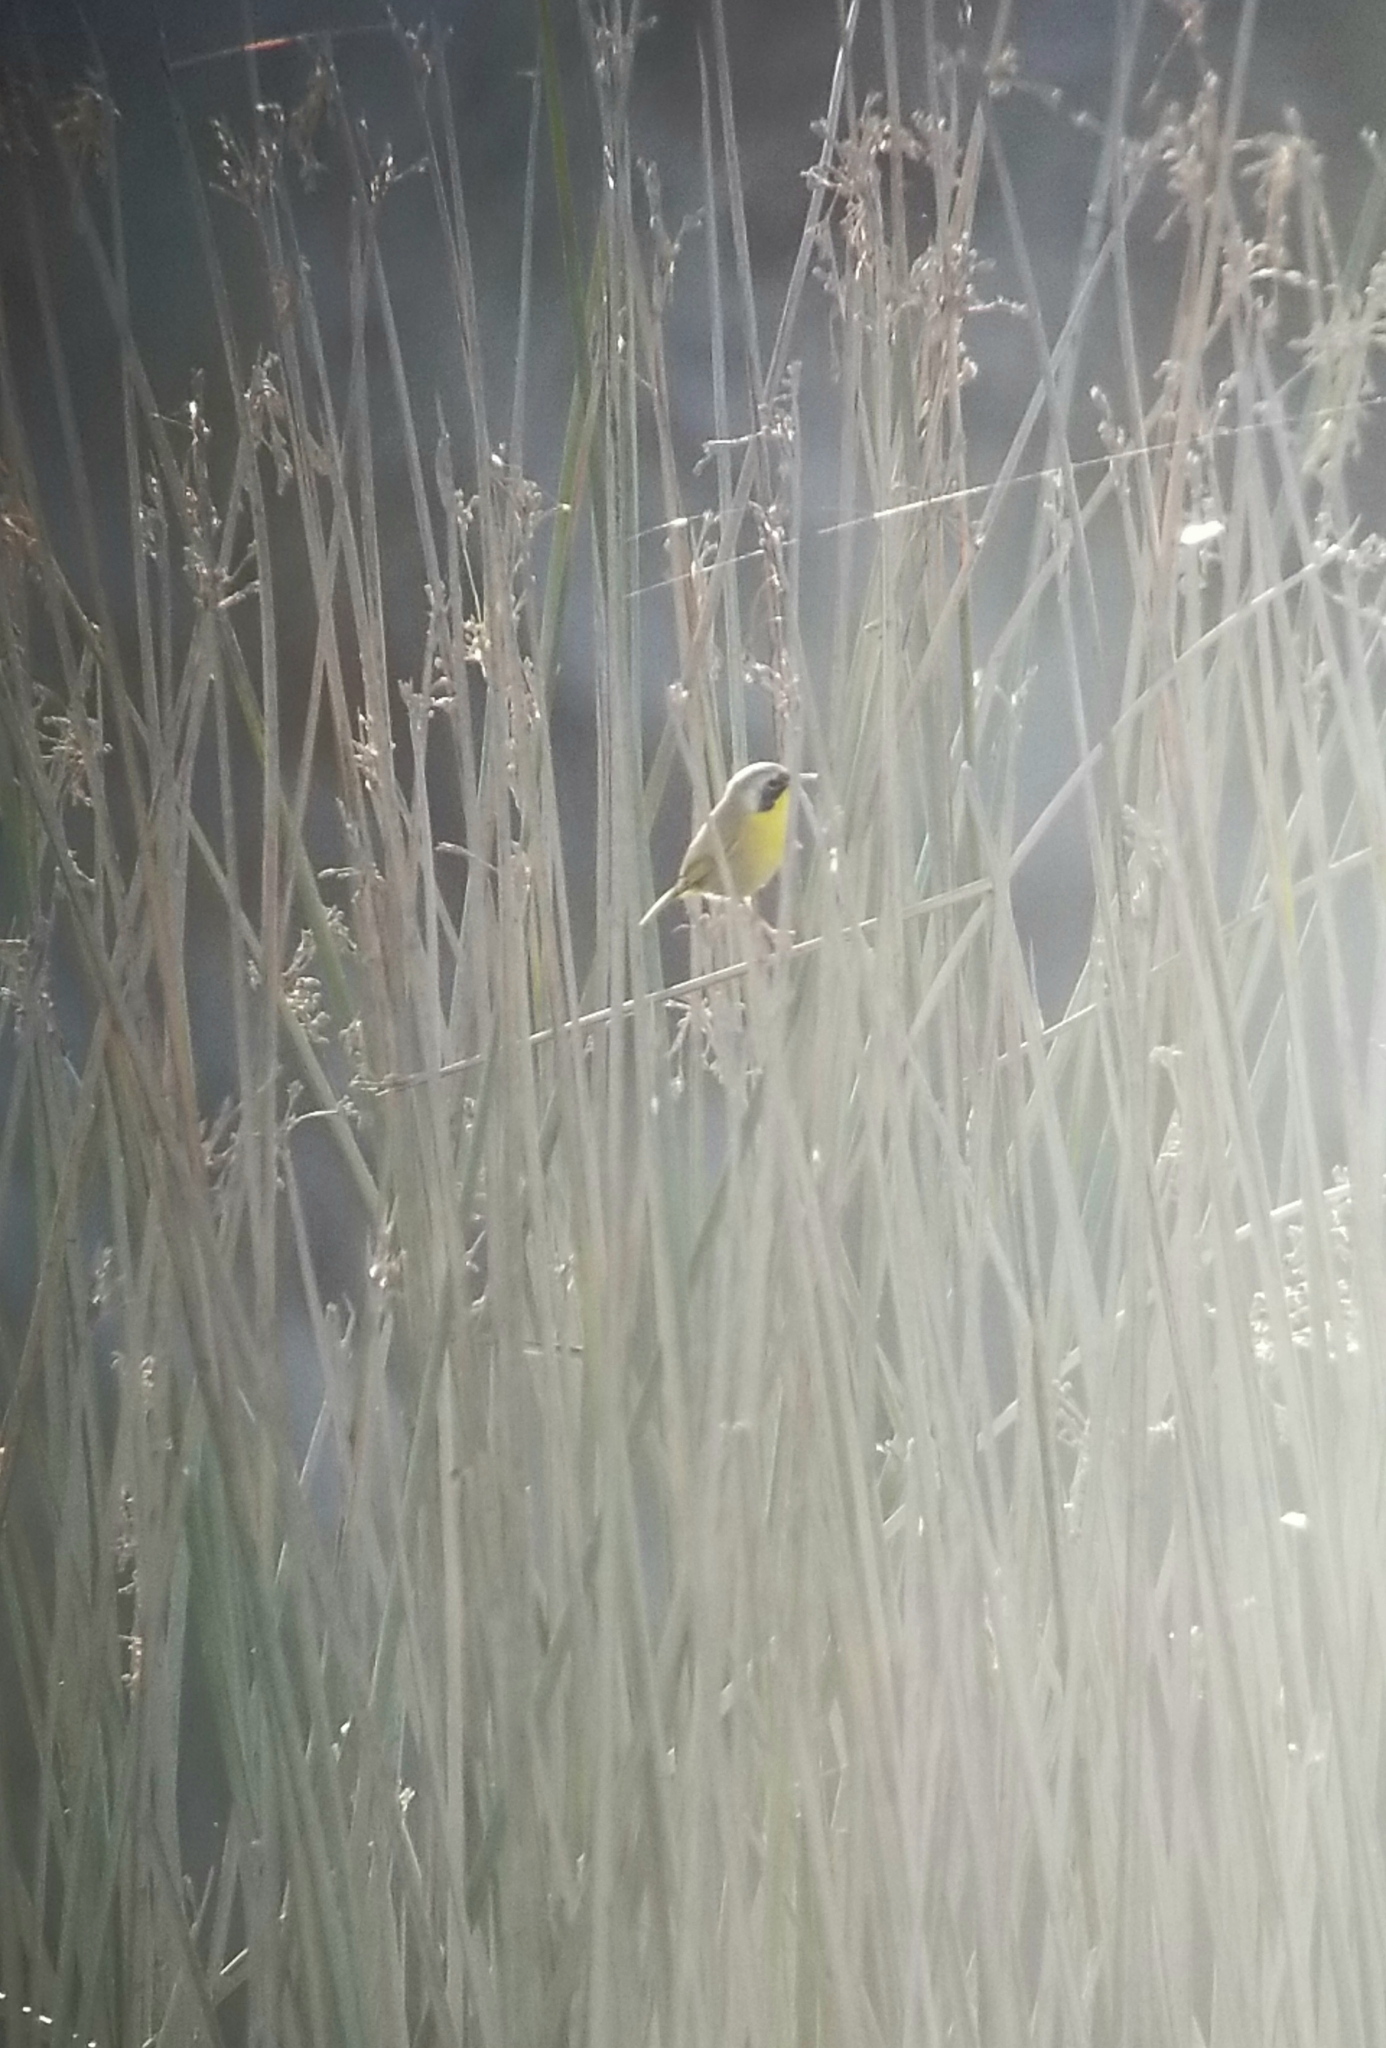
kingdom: Animalia
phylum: Chordata
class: Aves
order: Passeriformes
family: Parulidae
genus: Geothlypis
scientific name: Geothlypis trichas
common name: Common yellowthroat
